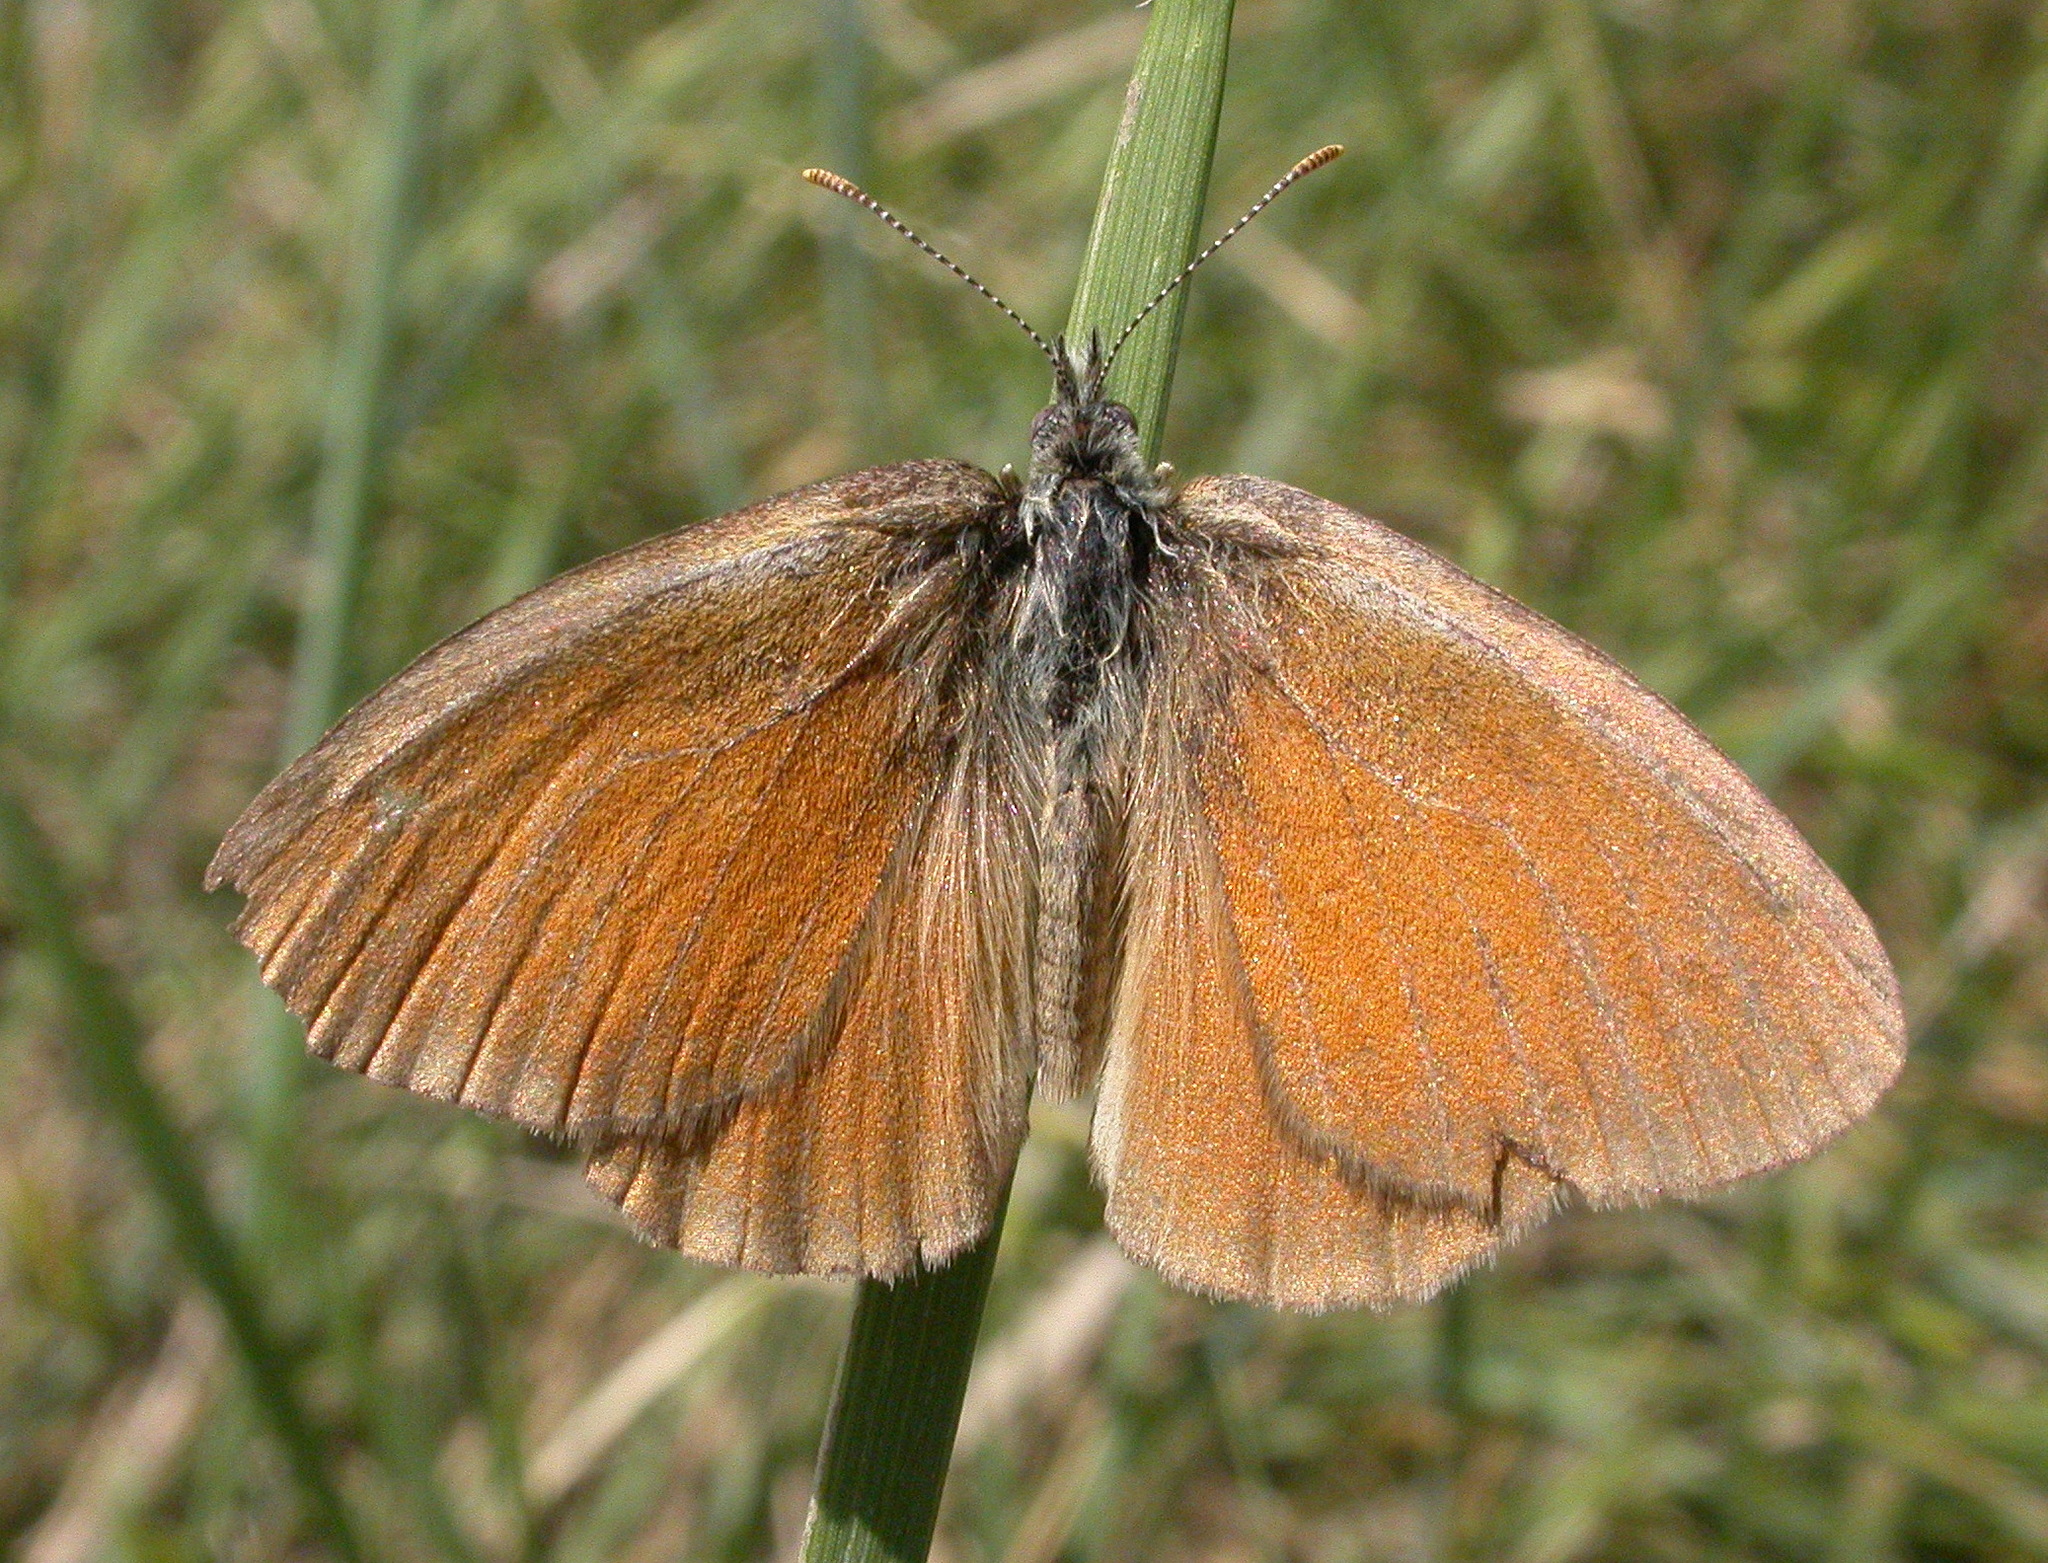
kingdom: Animalia
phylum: Arthropoda
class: Insecta
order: Lepidoptera
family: Nymphalidae
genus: Coenonympha
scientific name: Coenonympha california
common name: Common ringlet
